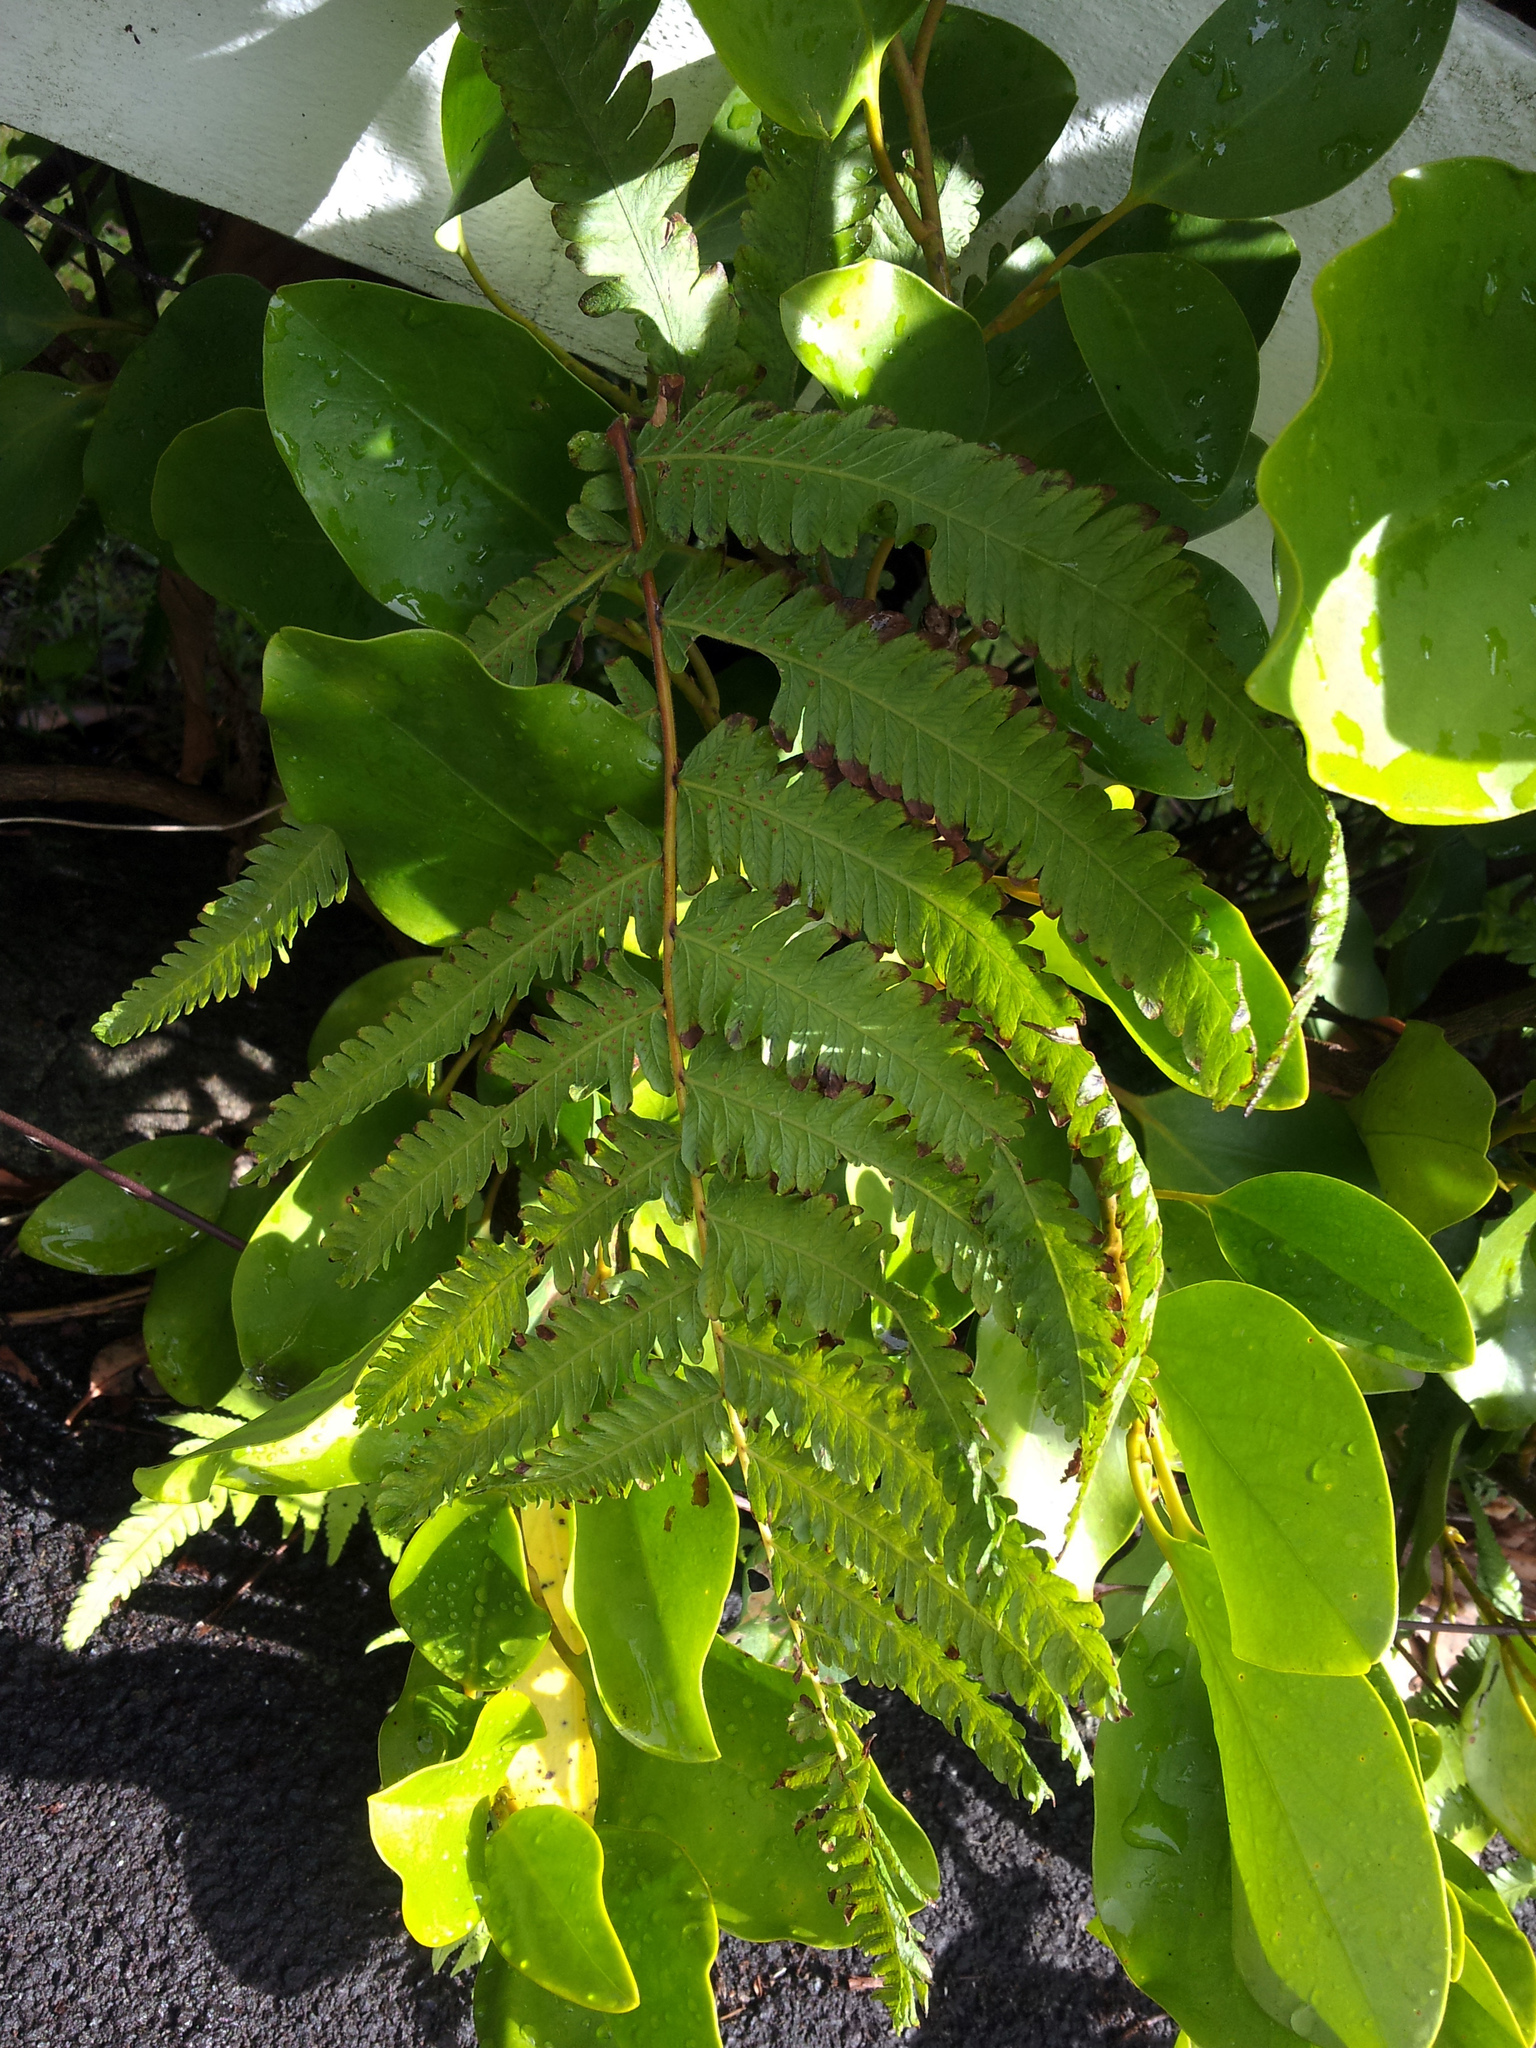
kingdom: Plantae
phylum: Tracheophyta
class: Polypodiopsida
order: Polypodiales
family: Thelypteridaceae
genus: Christella
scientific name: Christella dentata
